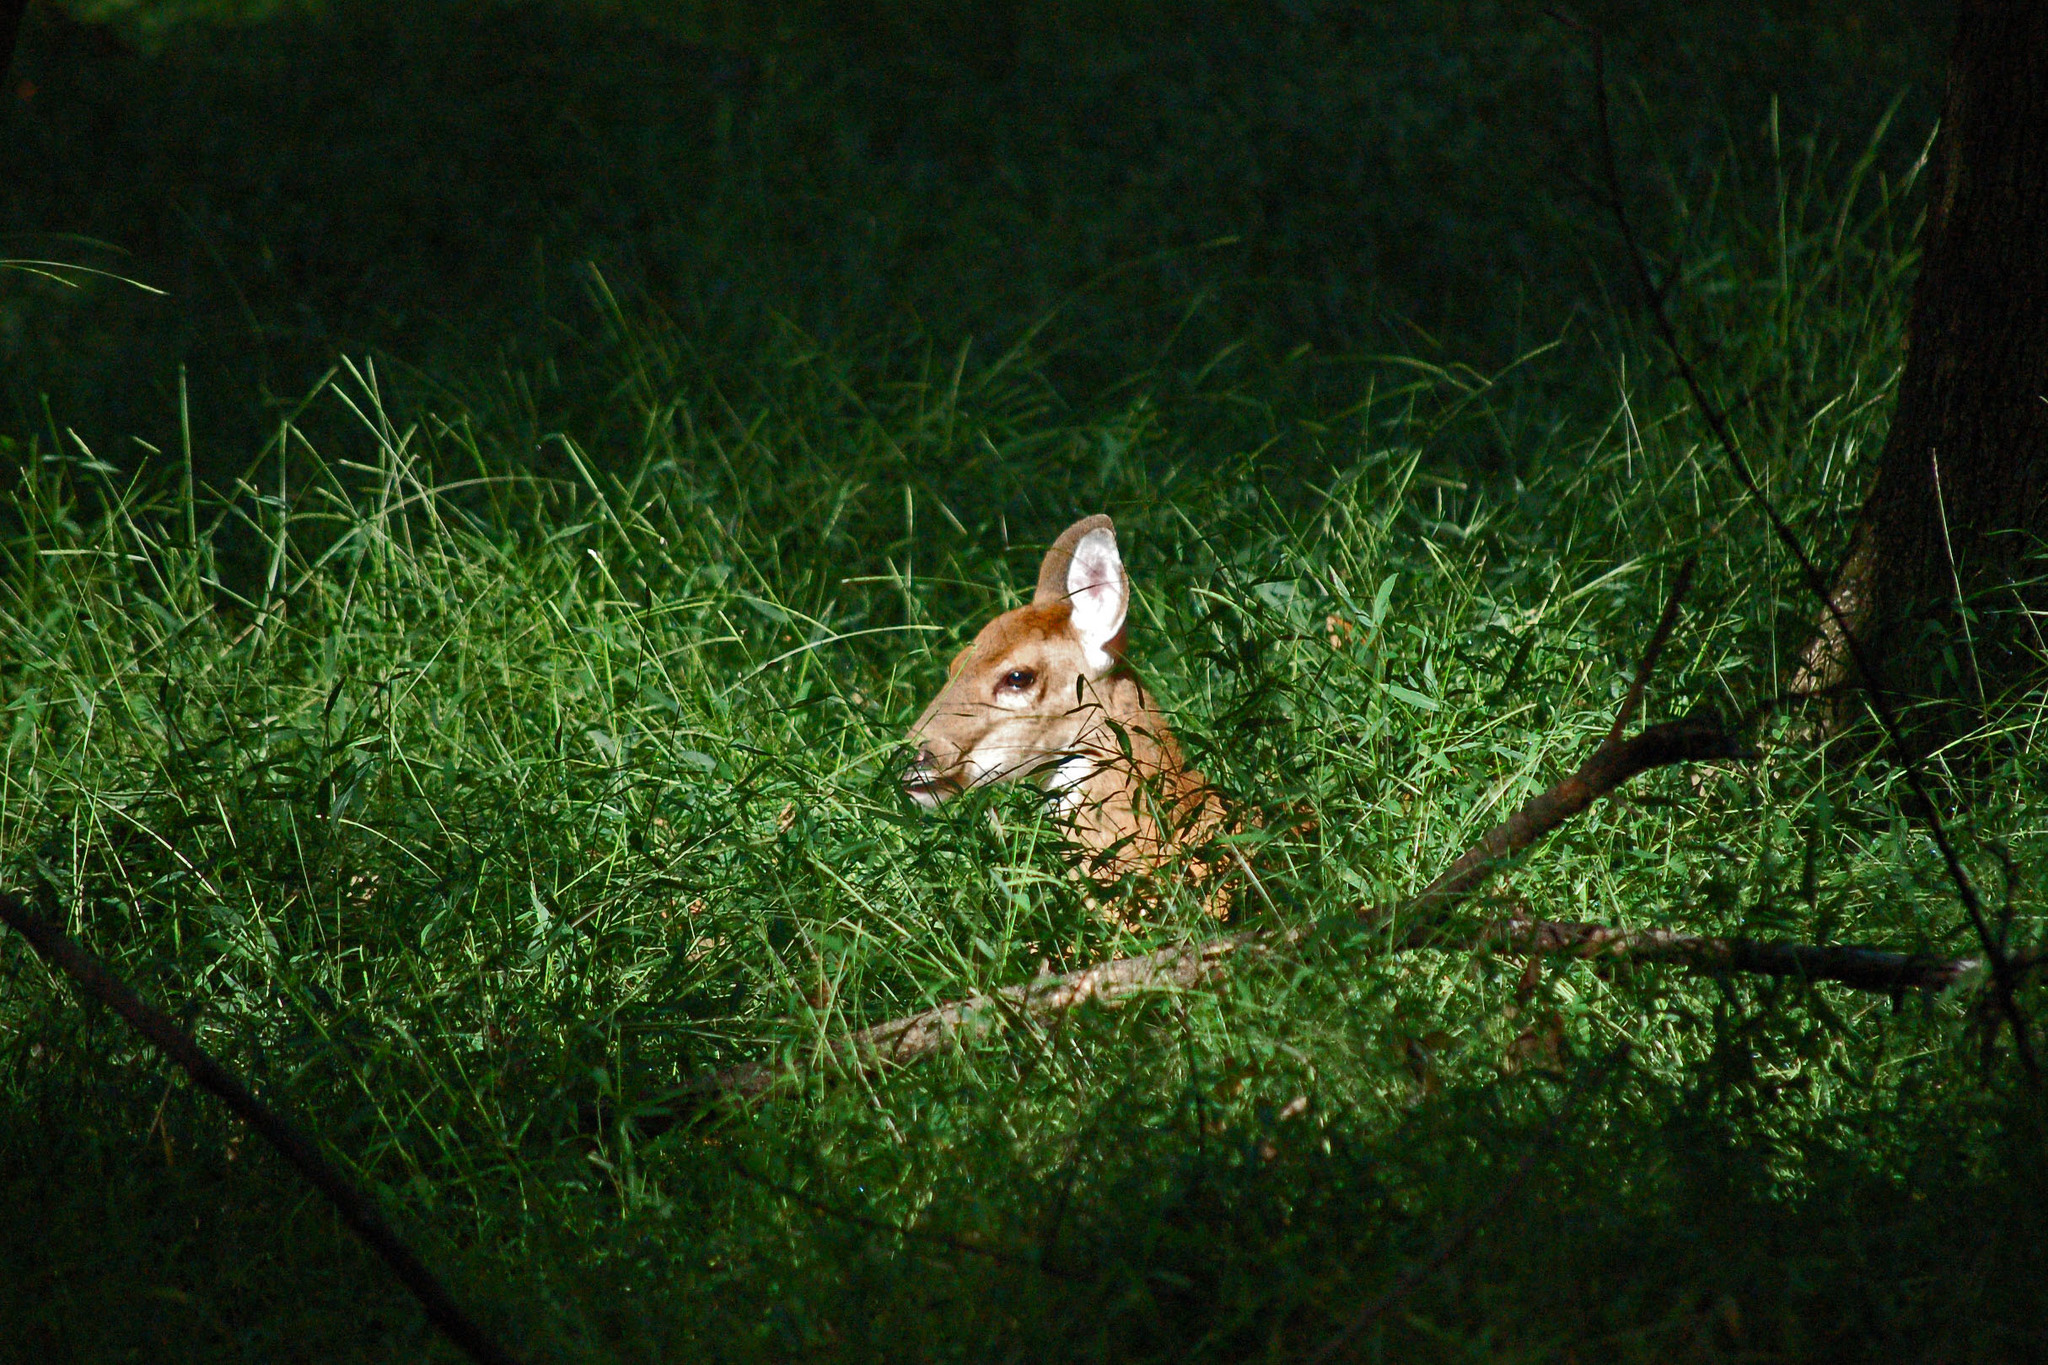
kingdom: Animalia
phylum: Chordata
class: Mammalia
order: Artiodactyla
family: Cervidae
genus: Odocoileus
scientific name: Odocoileus virginianus
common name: White-tailed deer
